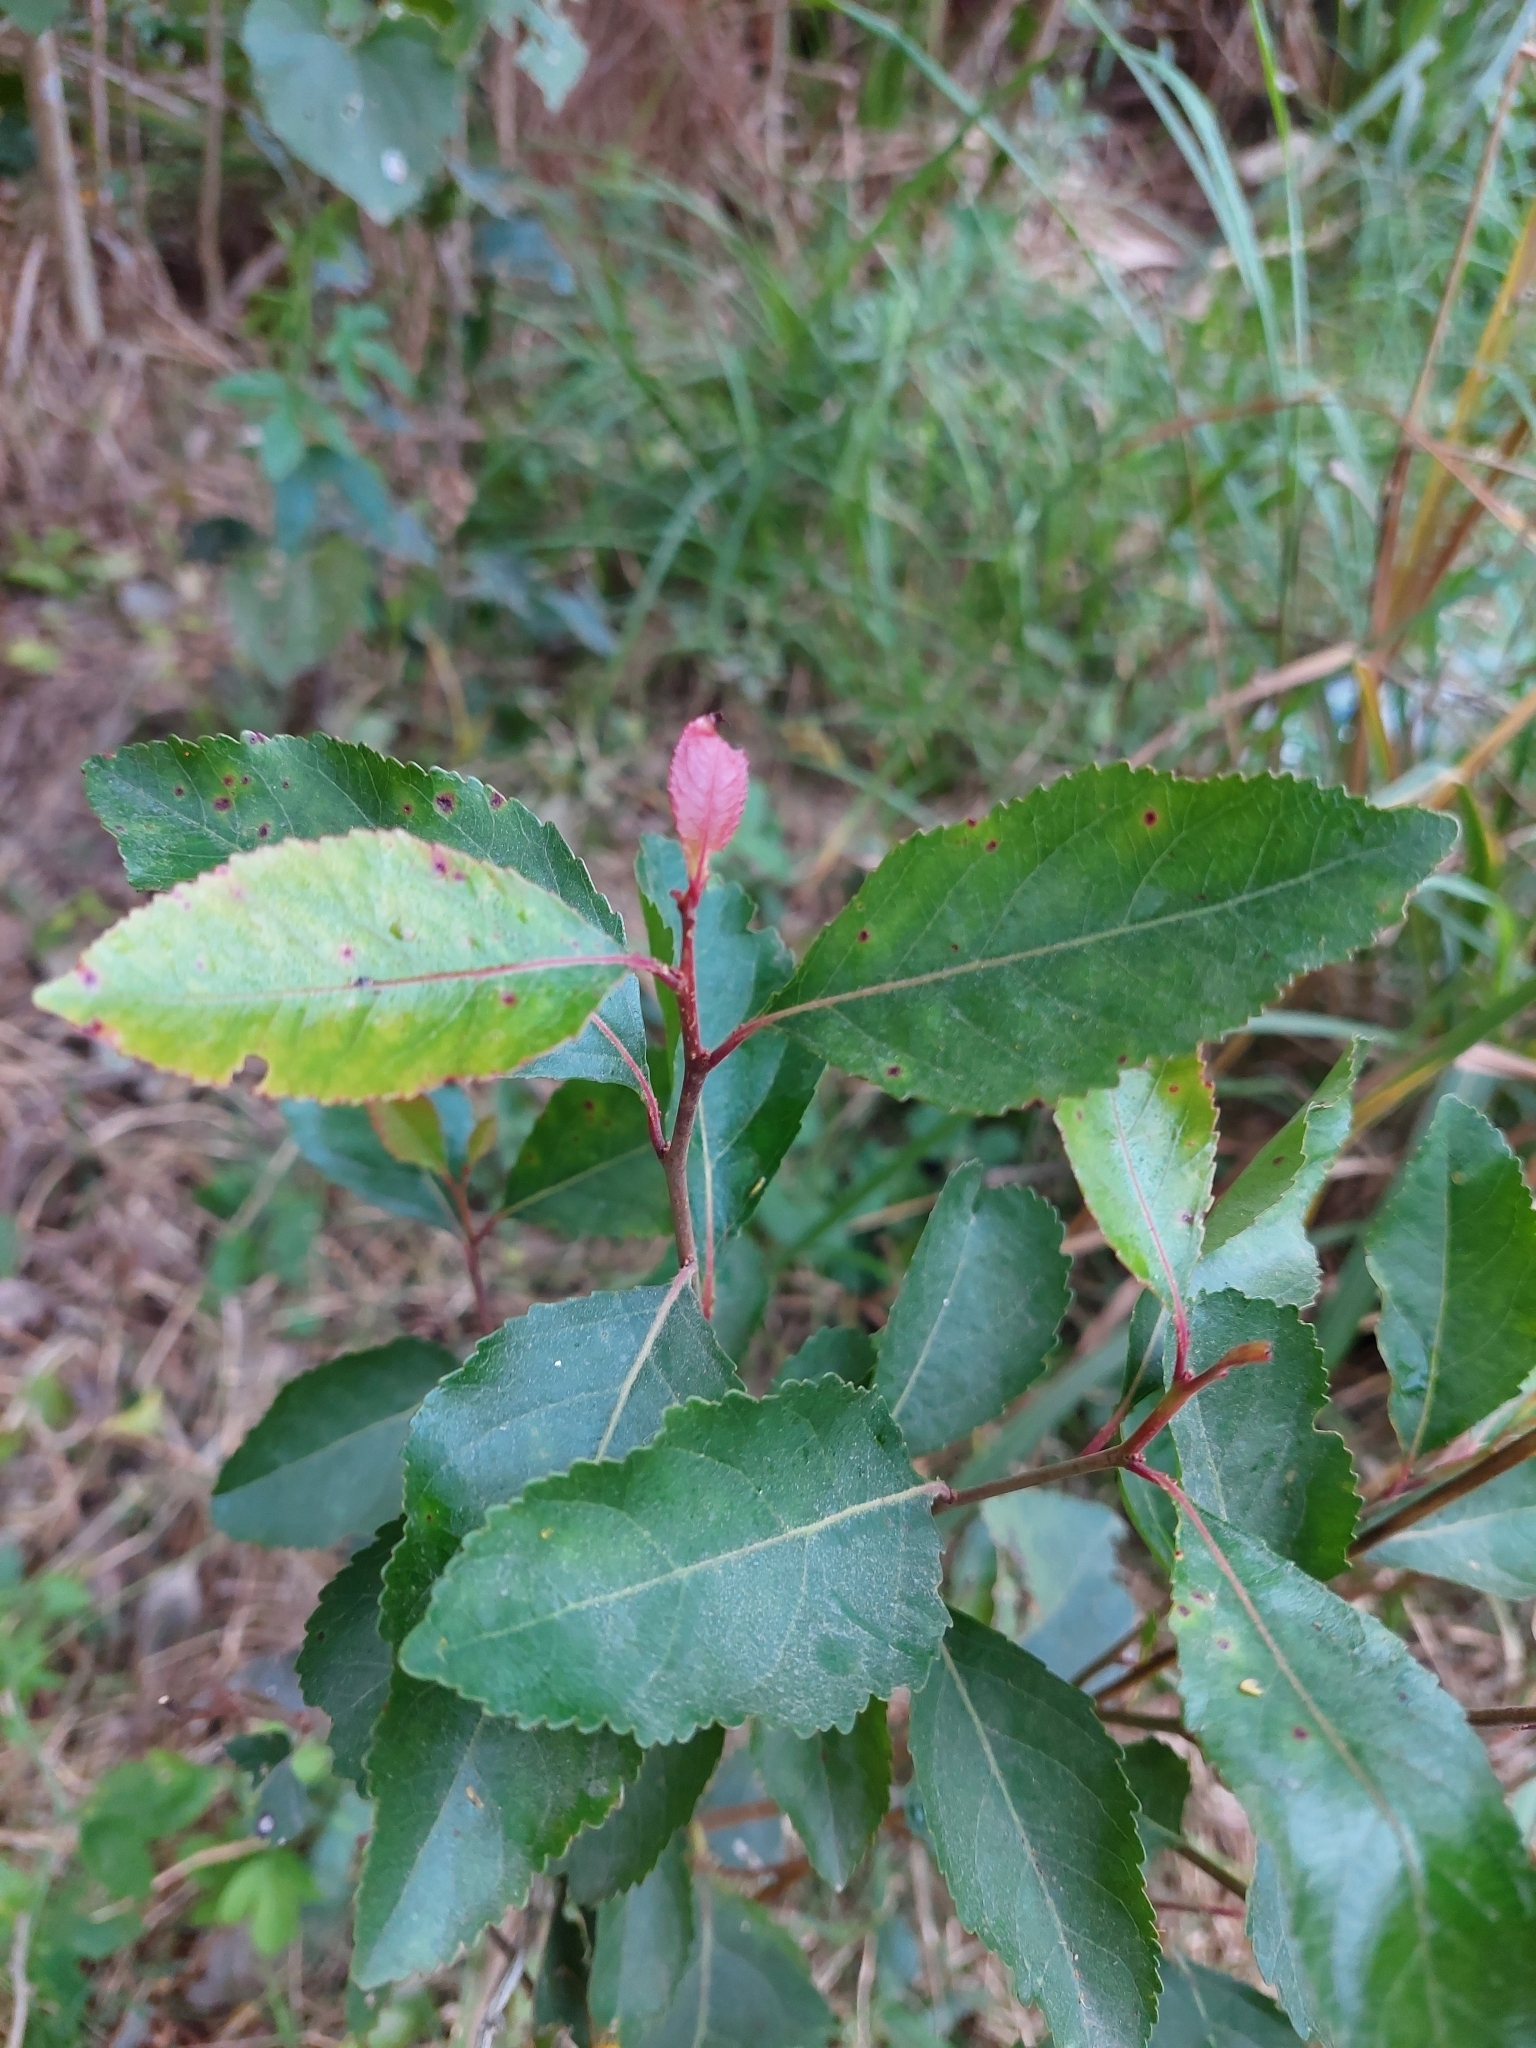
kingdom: Plantae
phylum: Tracheophyta
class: Magnoliopsida
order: Malpighiales
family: Salicaceae
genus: Xylosma
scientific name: Xylosma venosa
